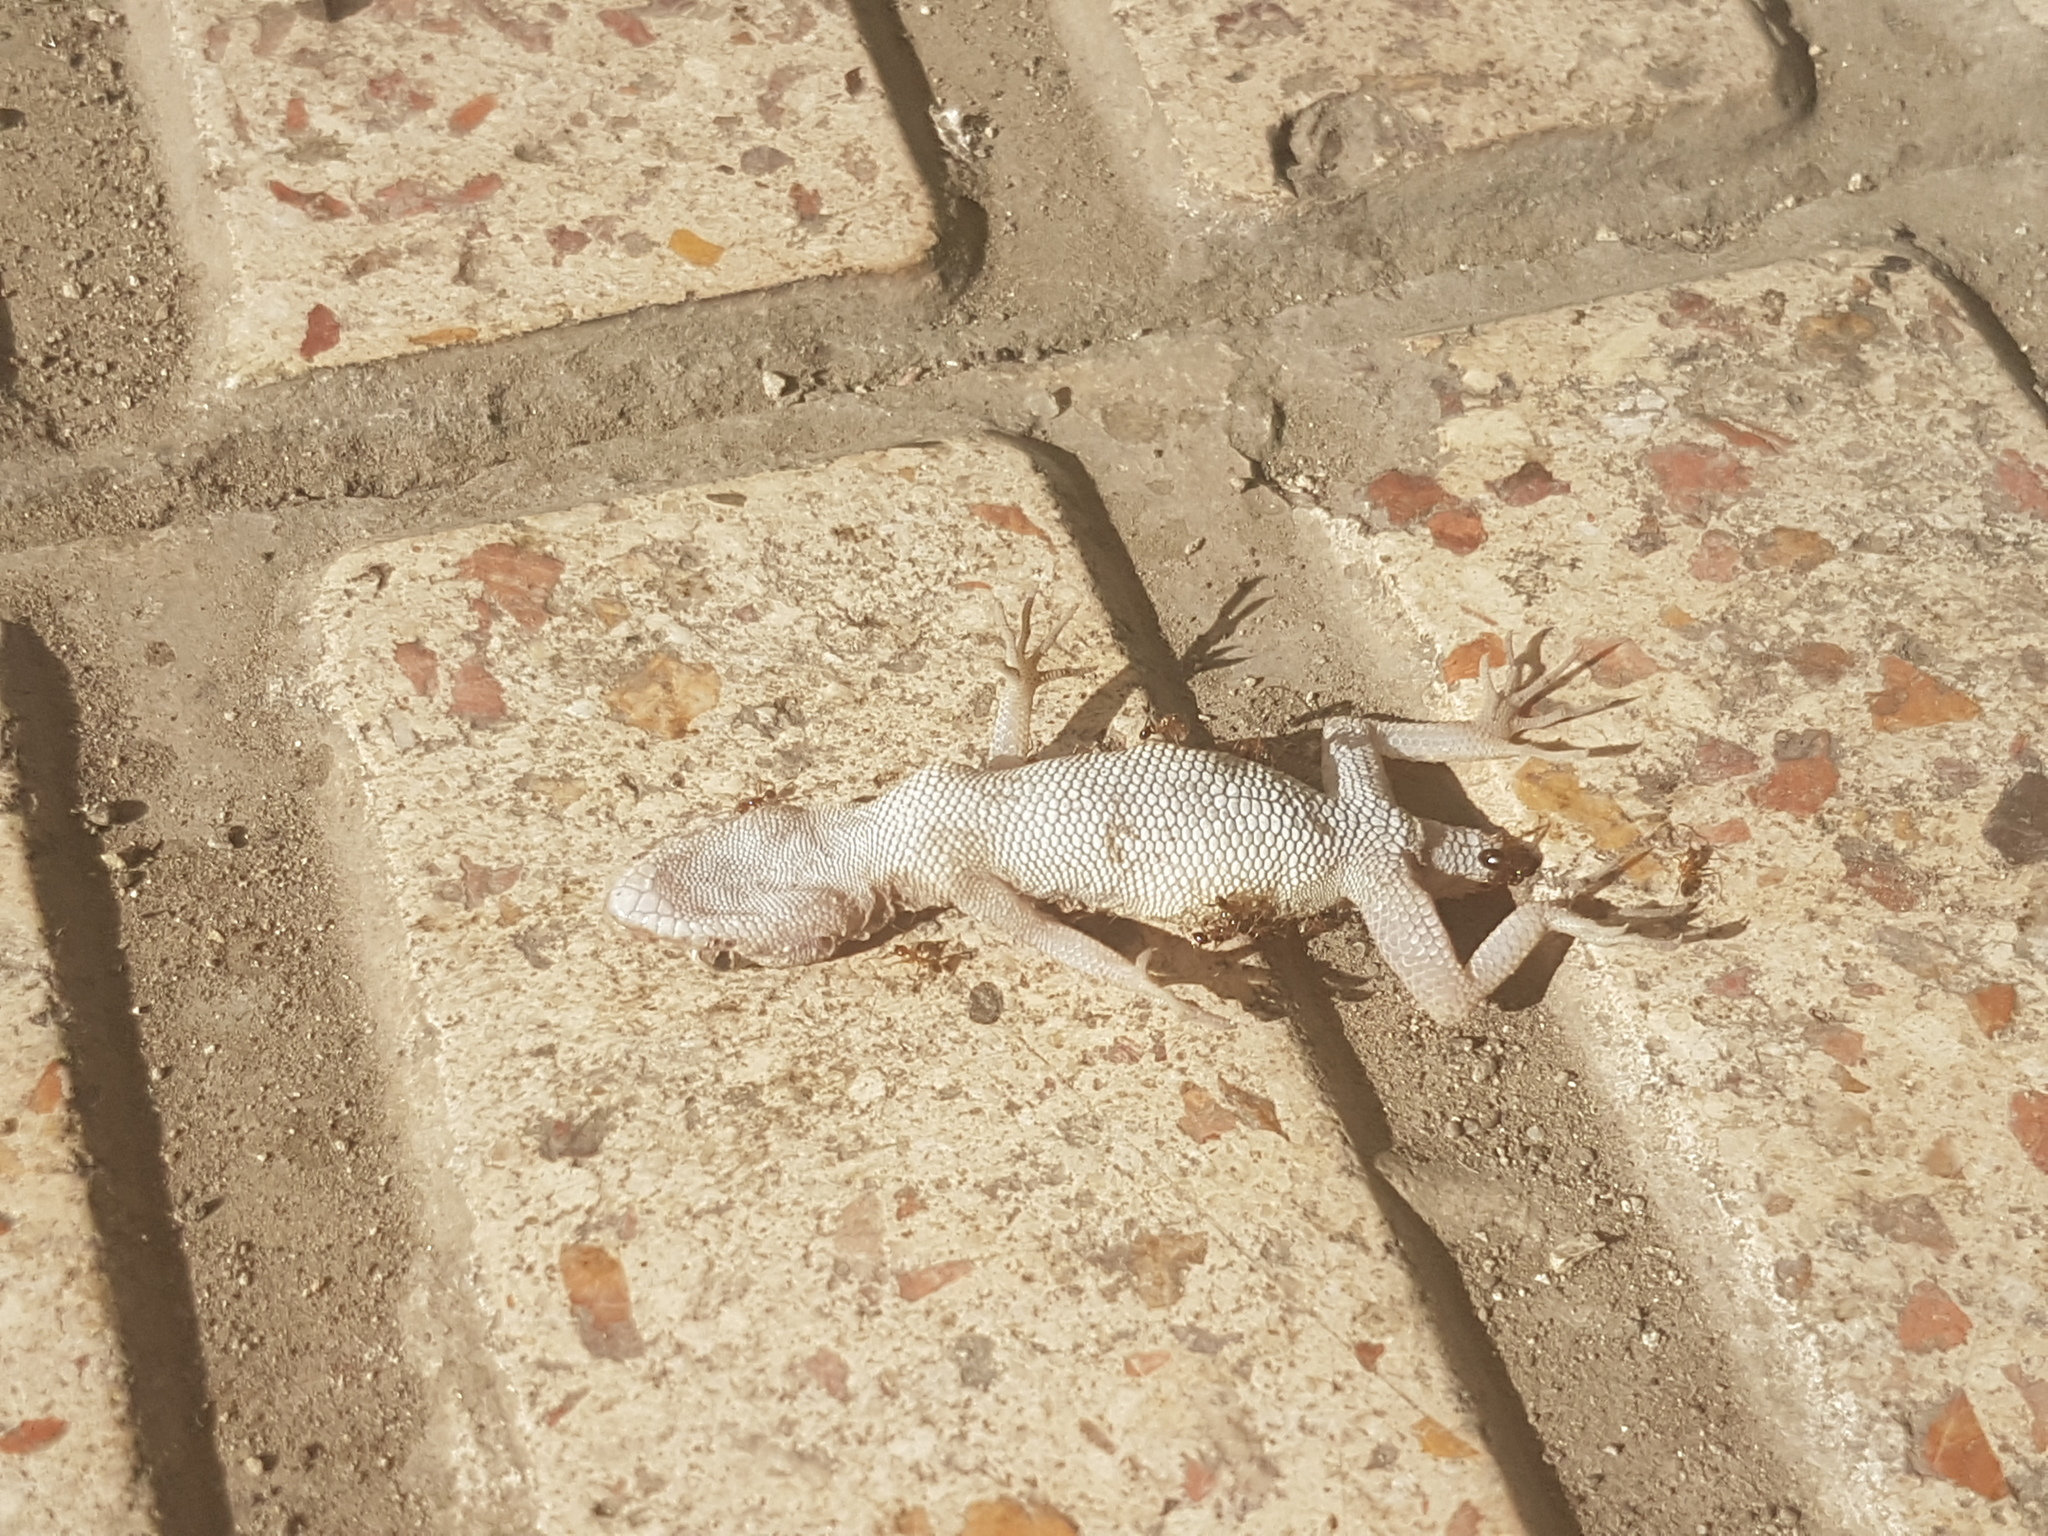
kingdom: Animalia
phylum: Chordata
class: Squamata
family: Gekkonidae
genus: Cyrtopodion
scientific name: Cyrtopodion scabrum
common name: Rough-tailed gecko
